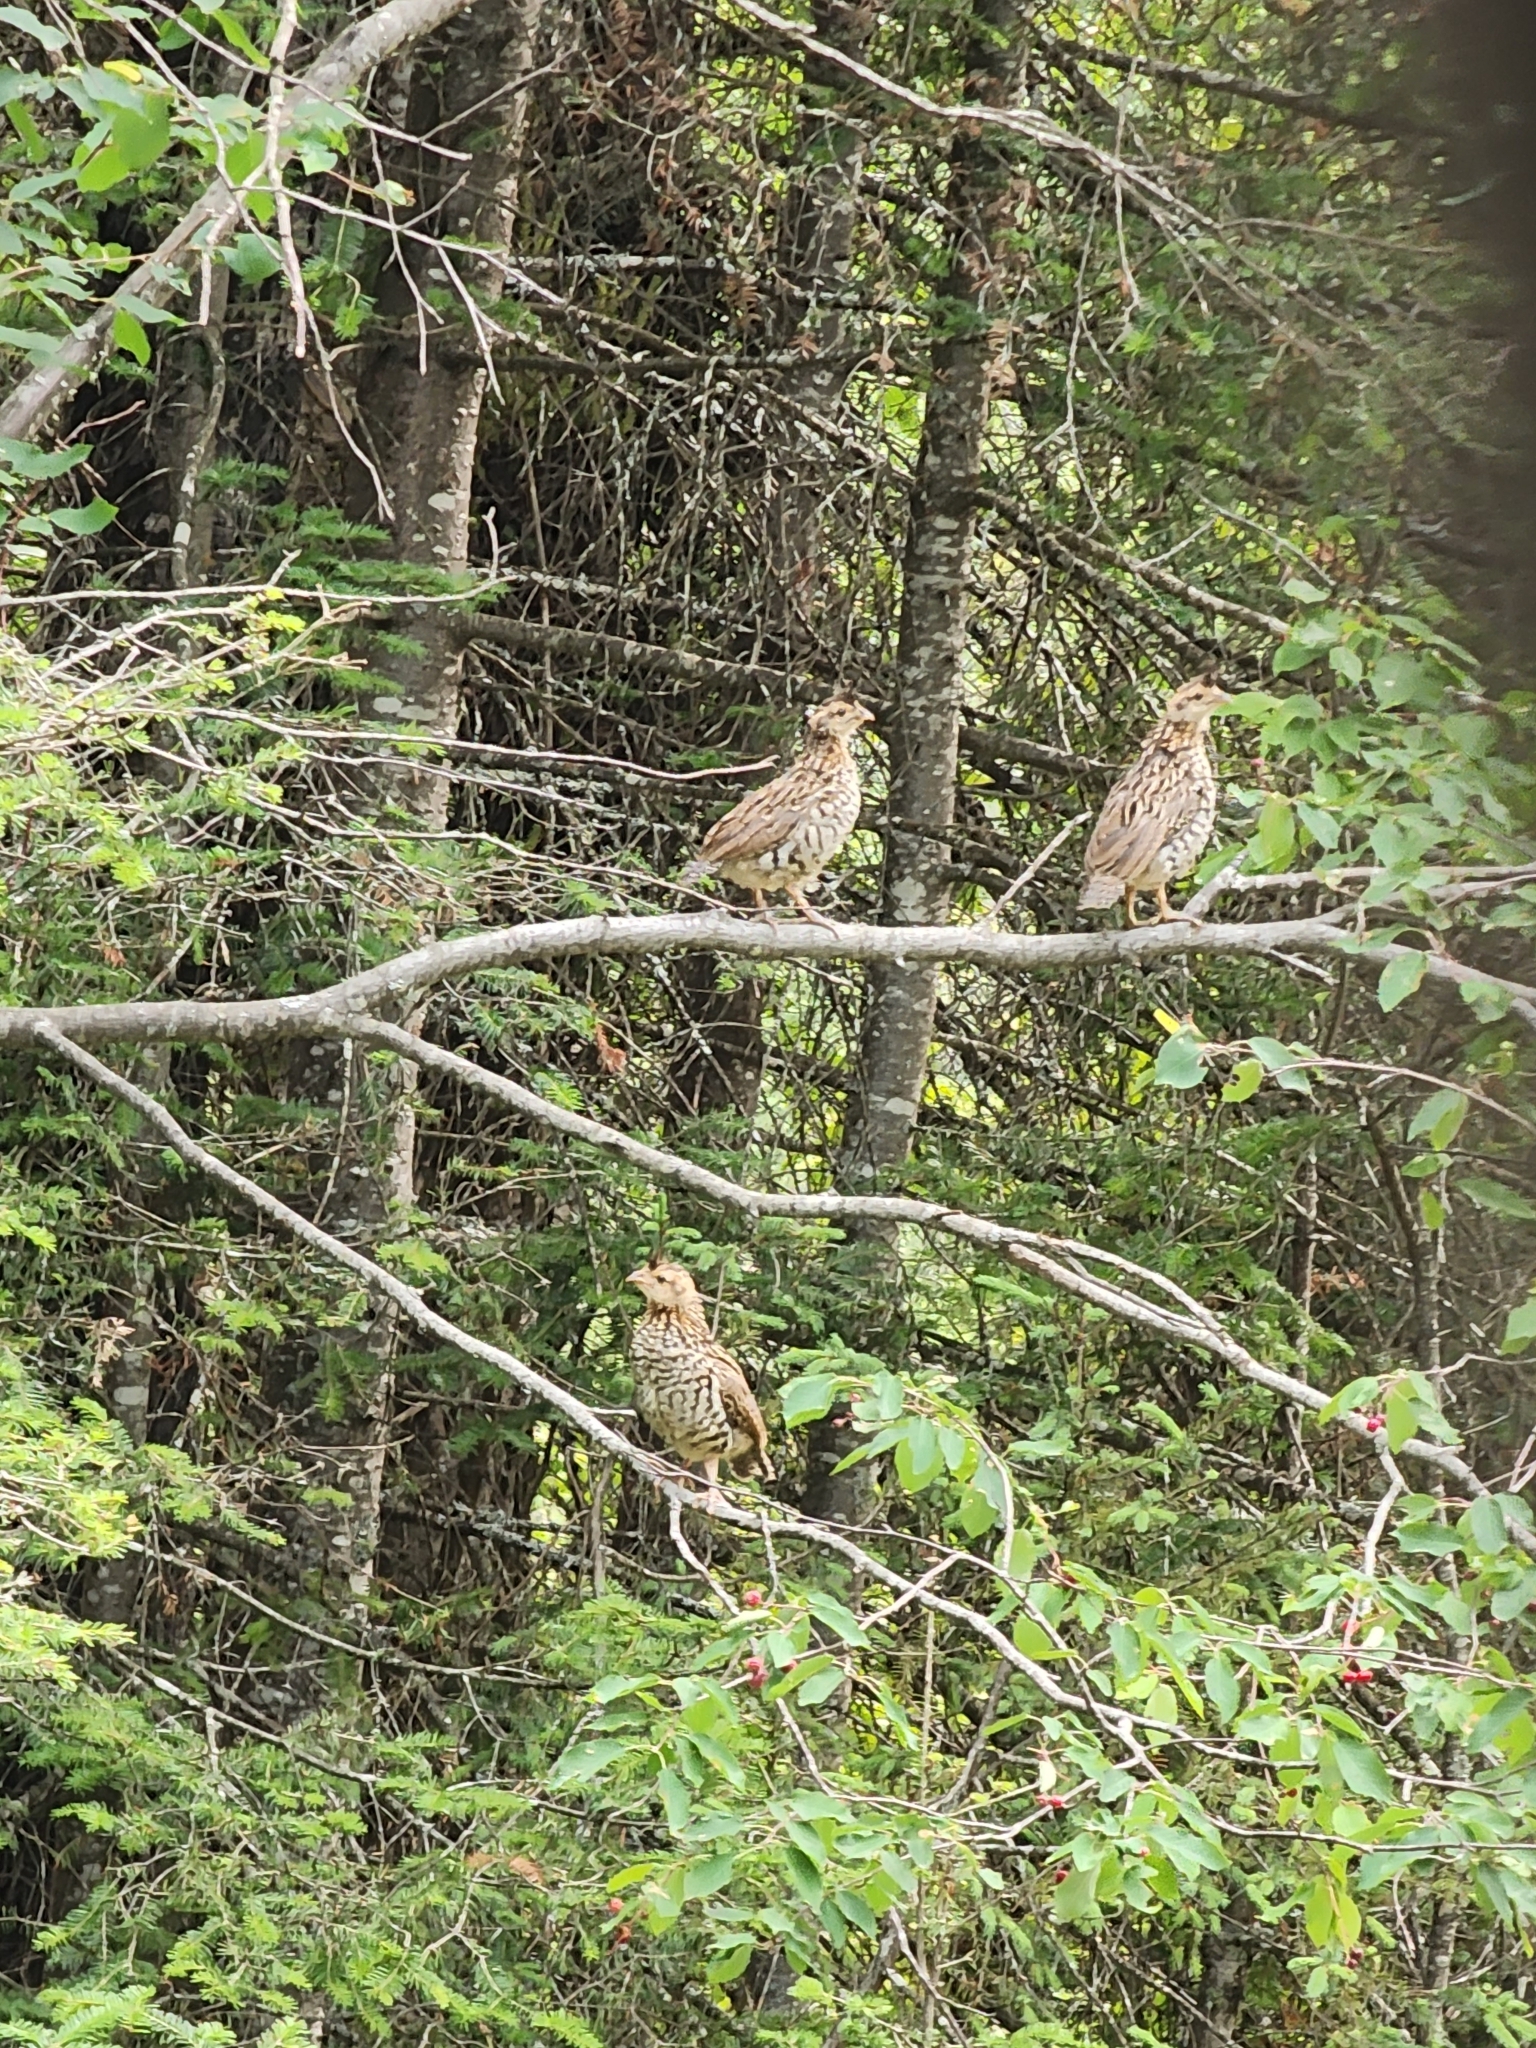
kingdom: Animalia
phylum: Chordata
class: Aves
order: Galliformes
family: Phasianidae
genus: Bonasa
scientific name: Bonasa umbellus
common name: Ruffed grouse
